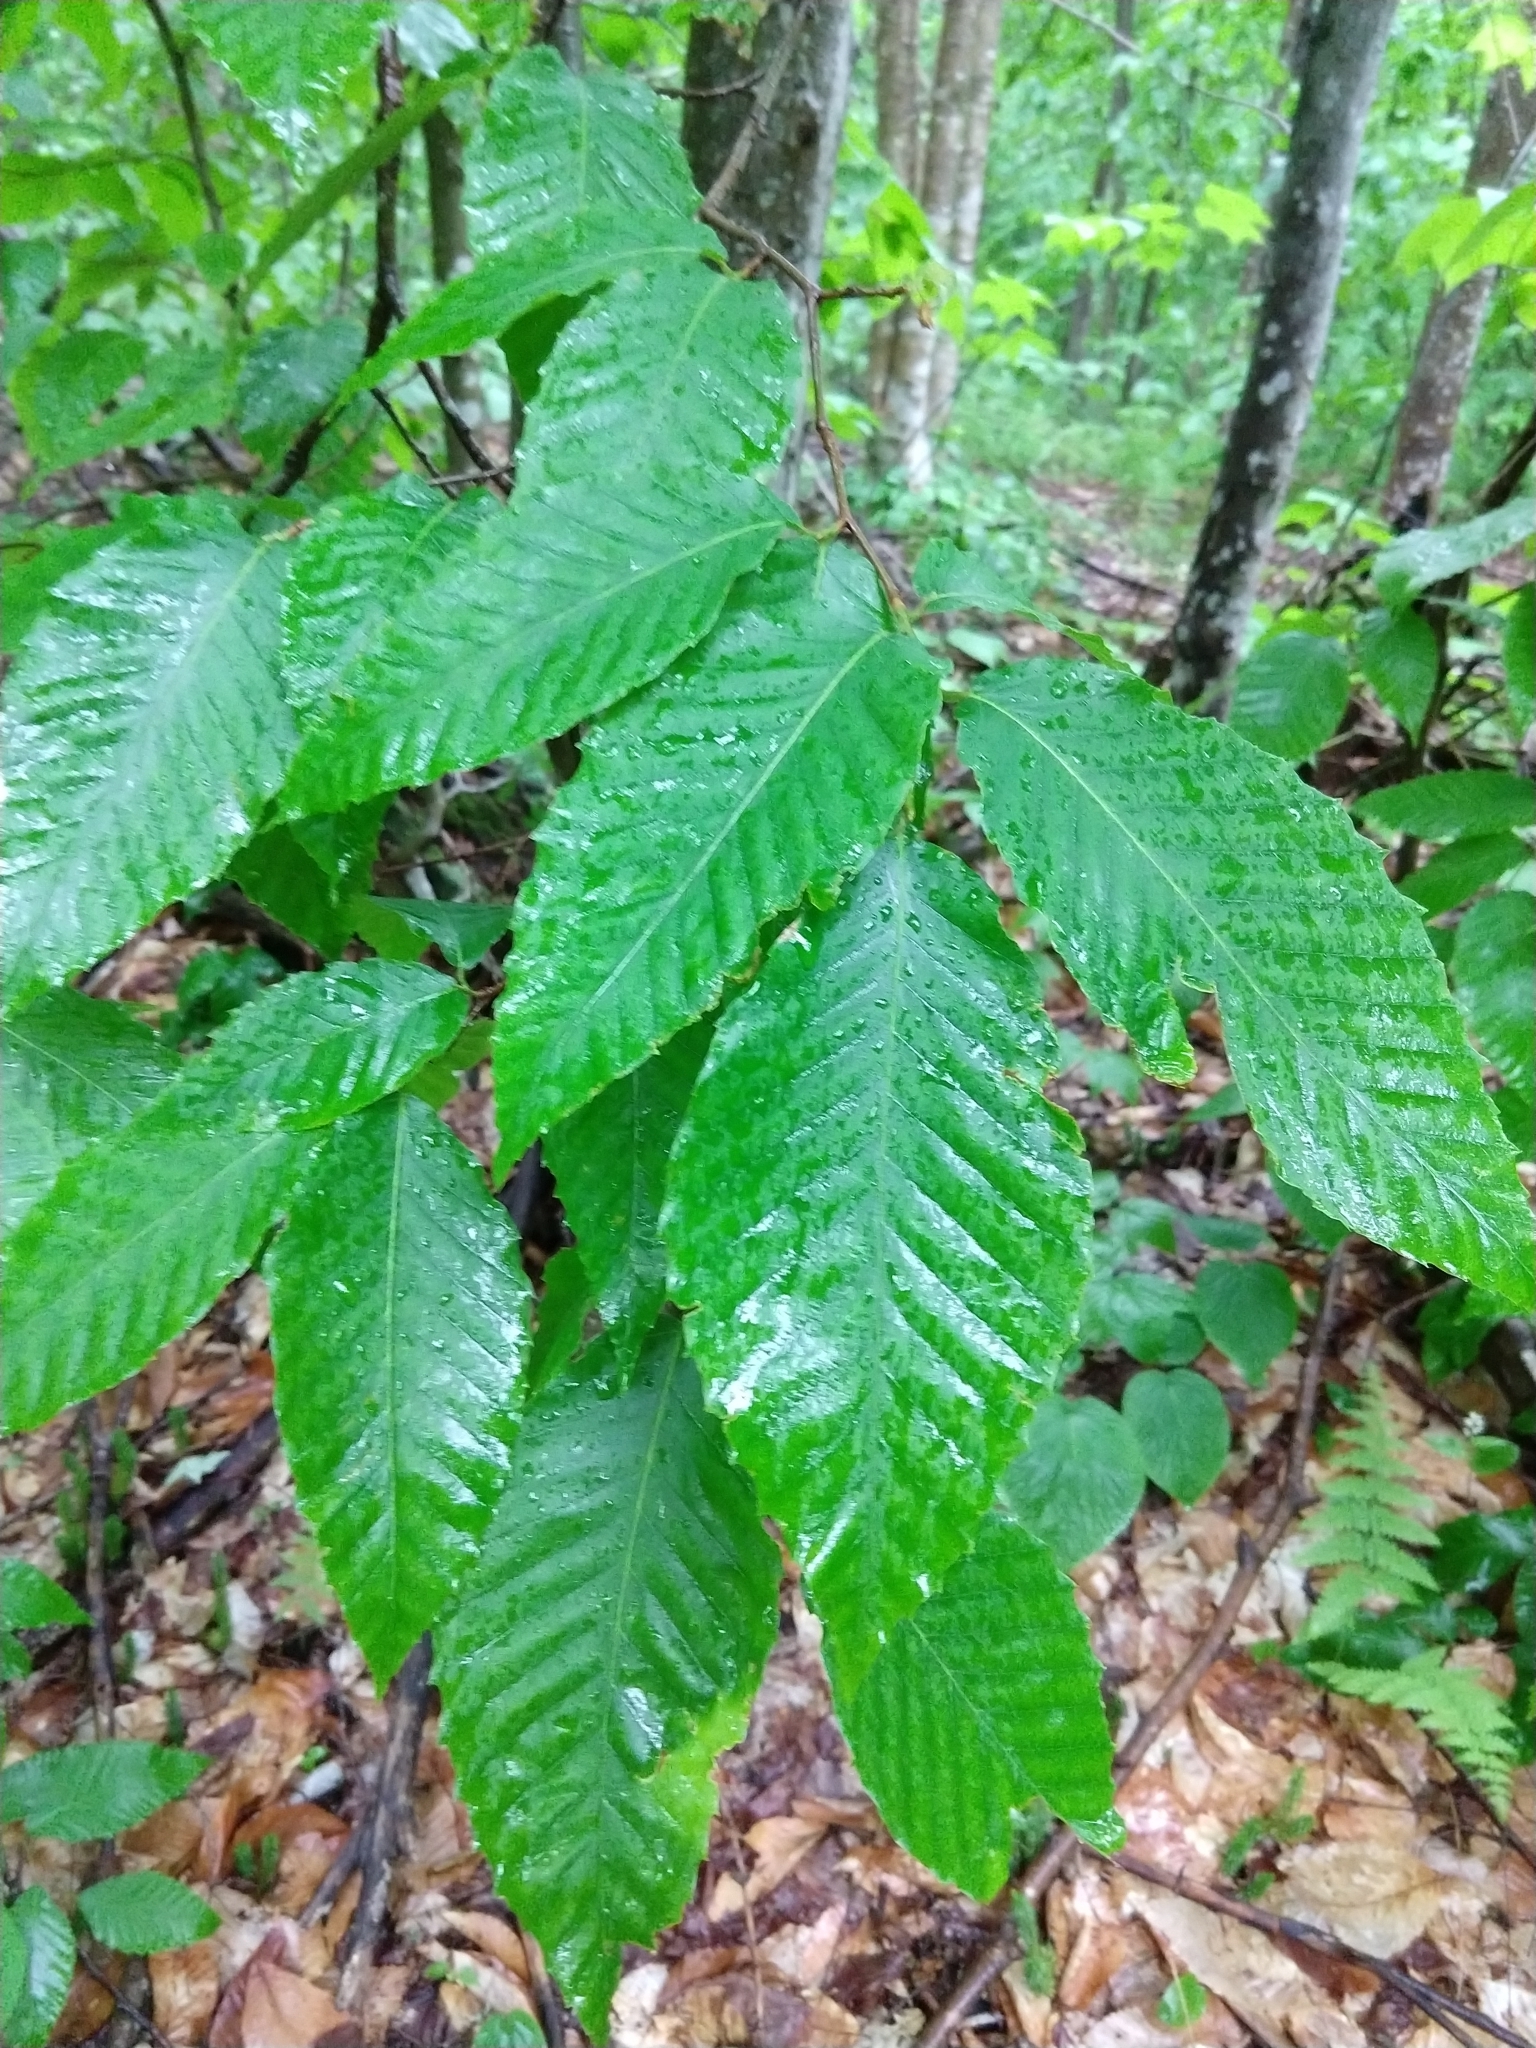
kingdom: Plantae
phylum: Tracheophyta
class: Magnoliopsida
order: Fagales
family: Fagaceae
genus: Fagus
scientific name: Fagus grandifolia
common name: American beech
